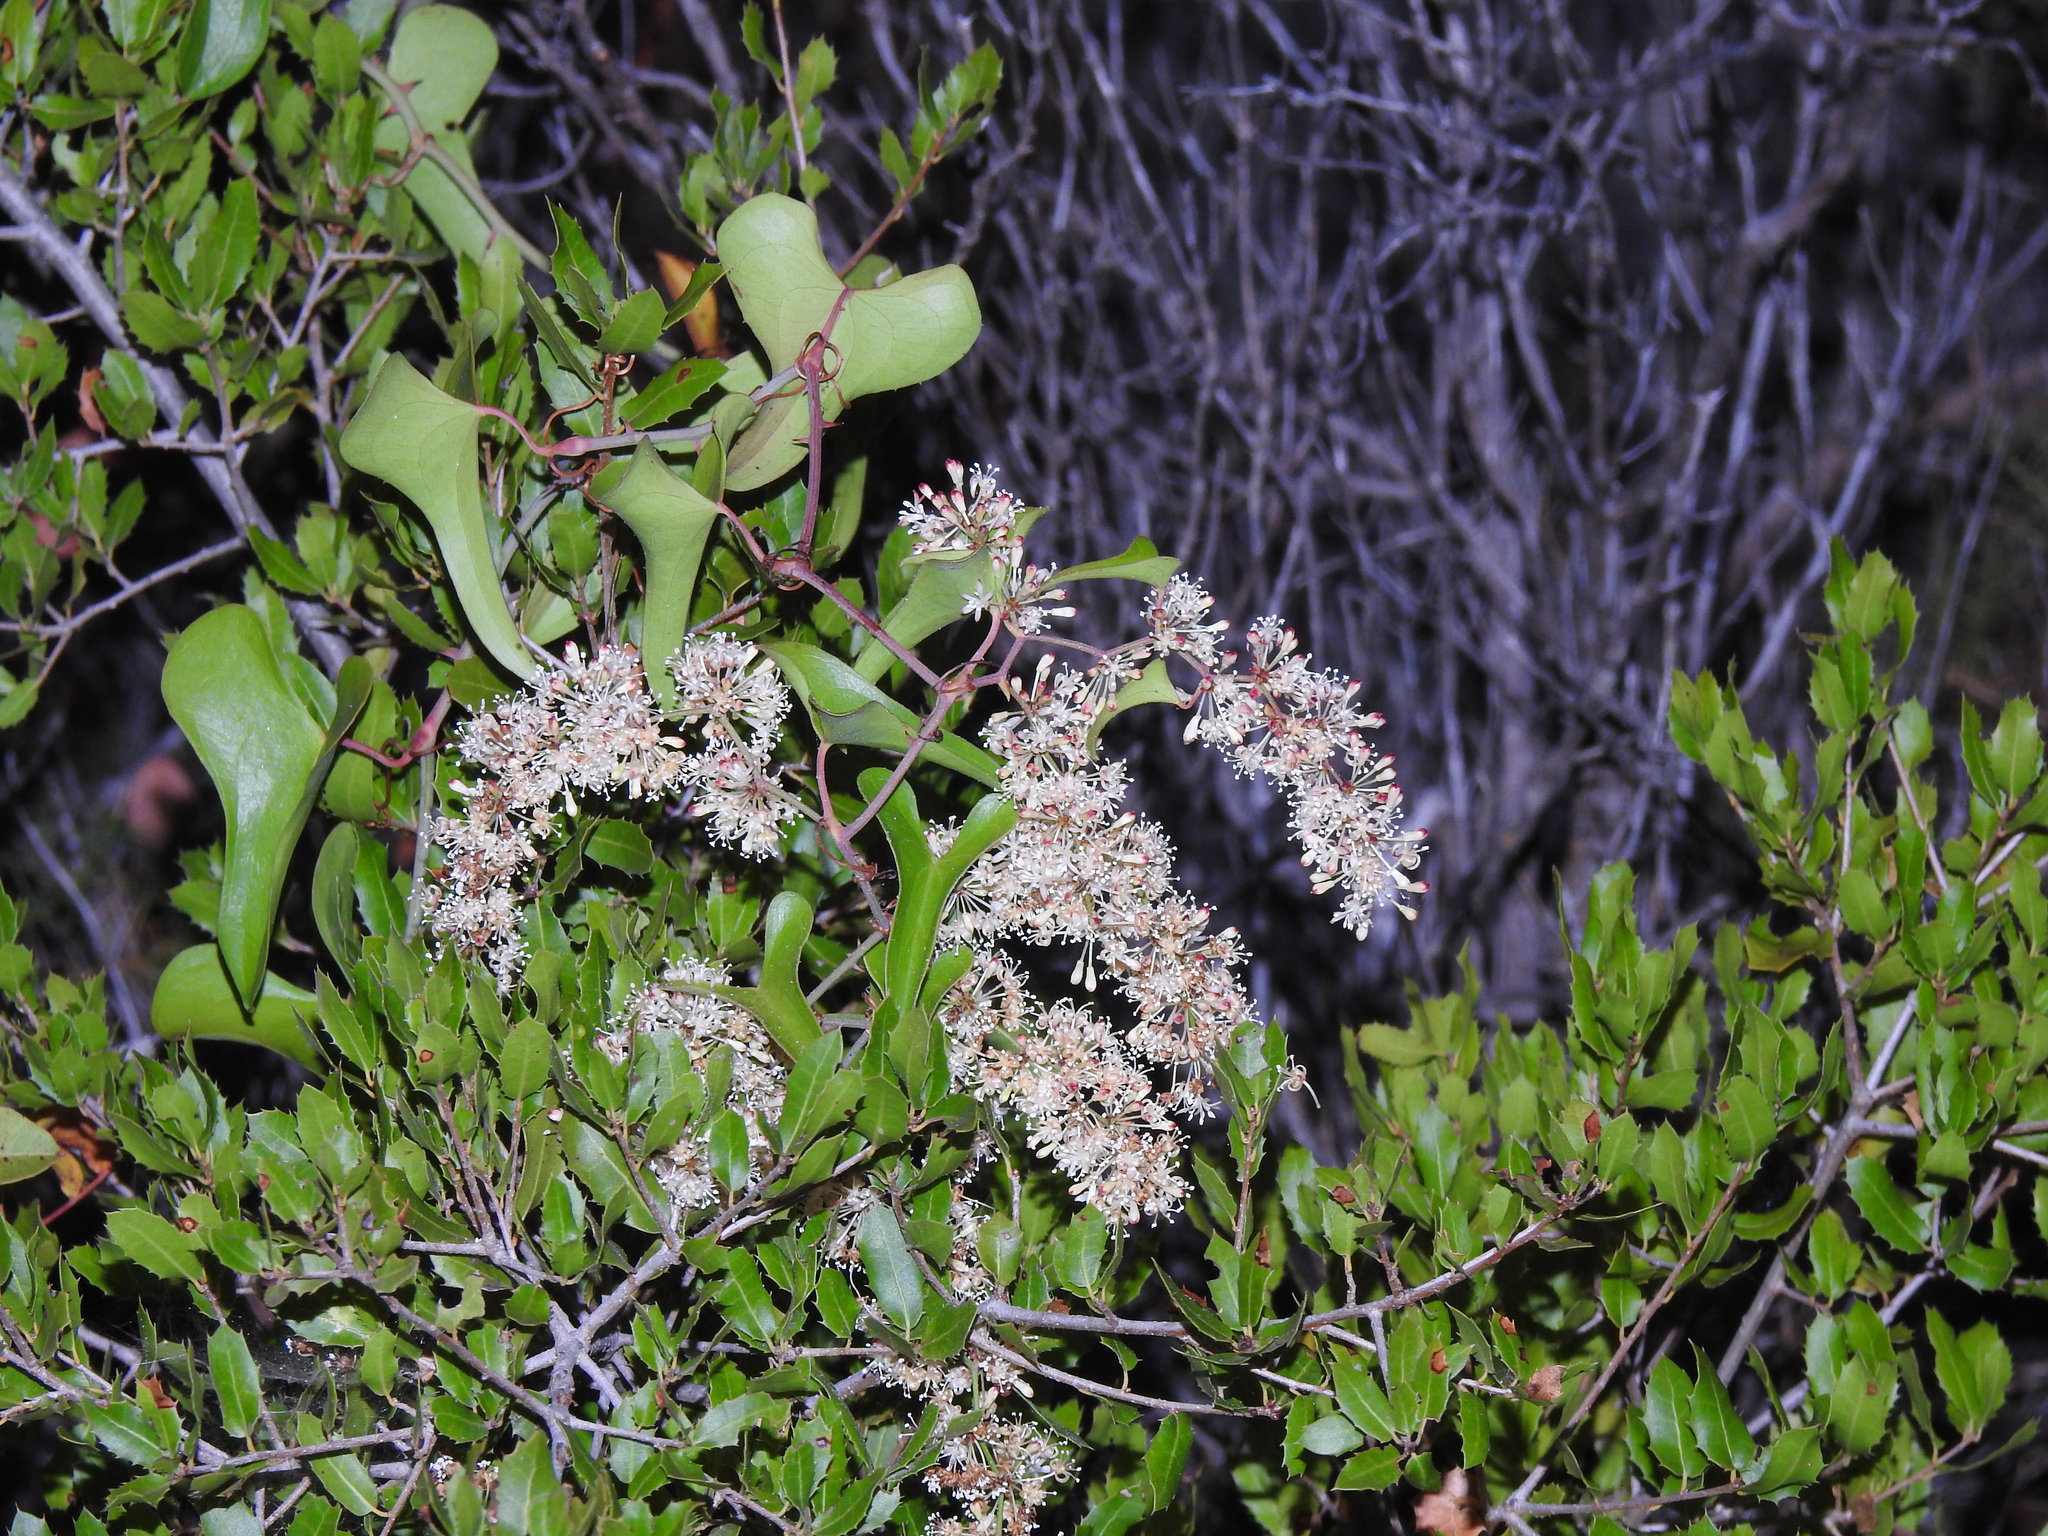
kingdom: Plantae
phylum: Tracheophyta
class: Liliopsida
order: Liliales
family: Smilacaceae
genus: Smilax
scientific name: Smilax aspera
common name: Common smilax
